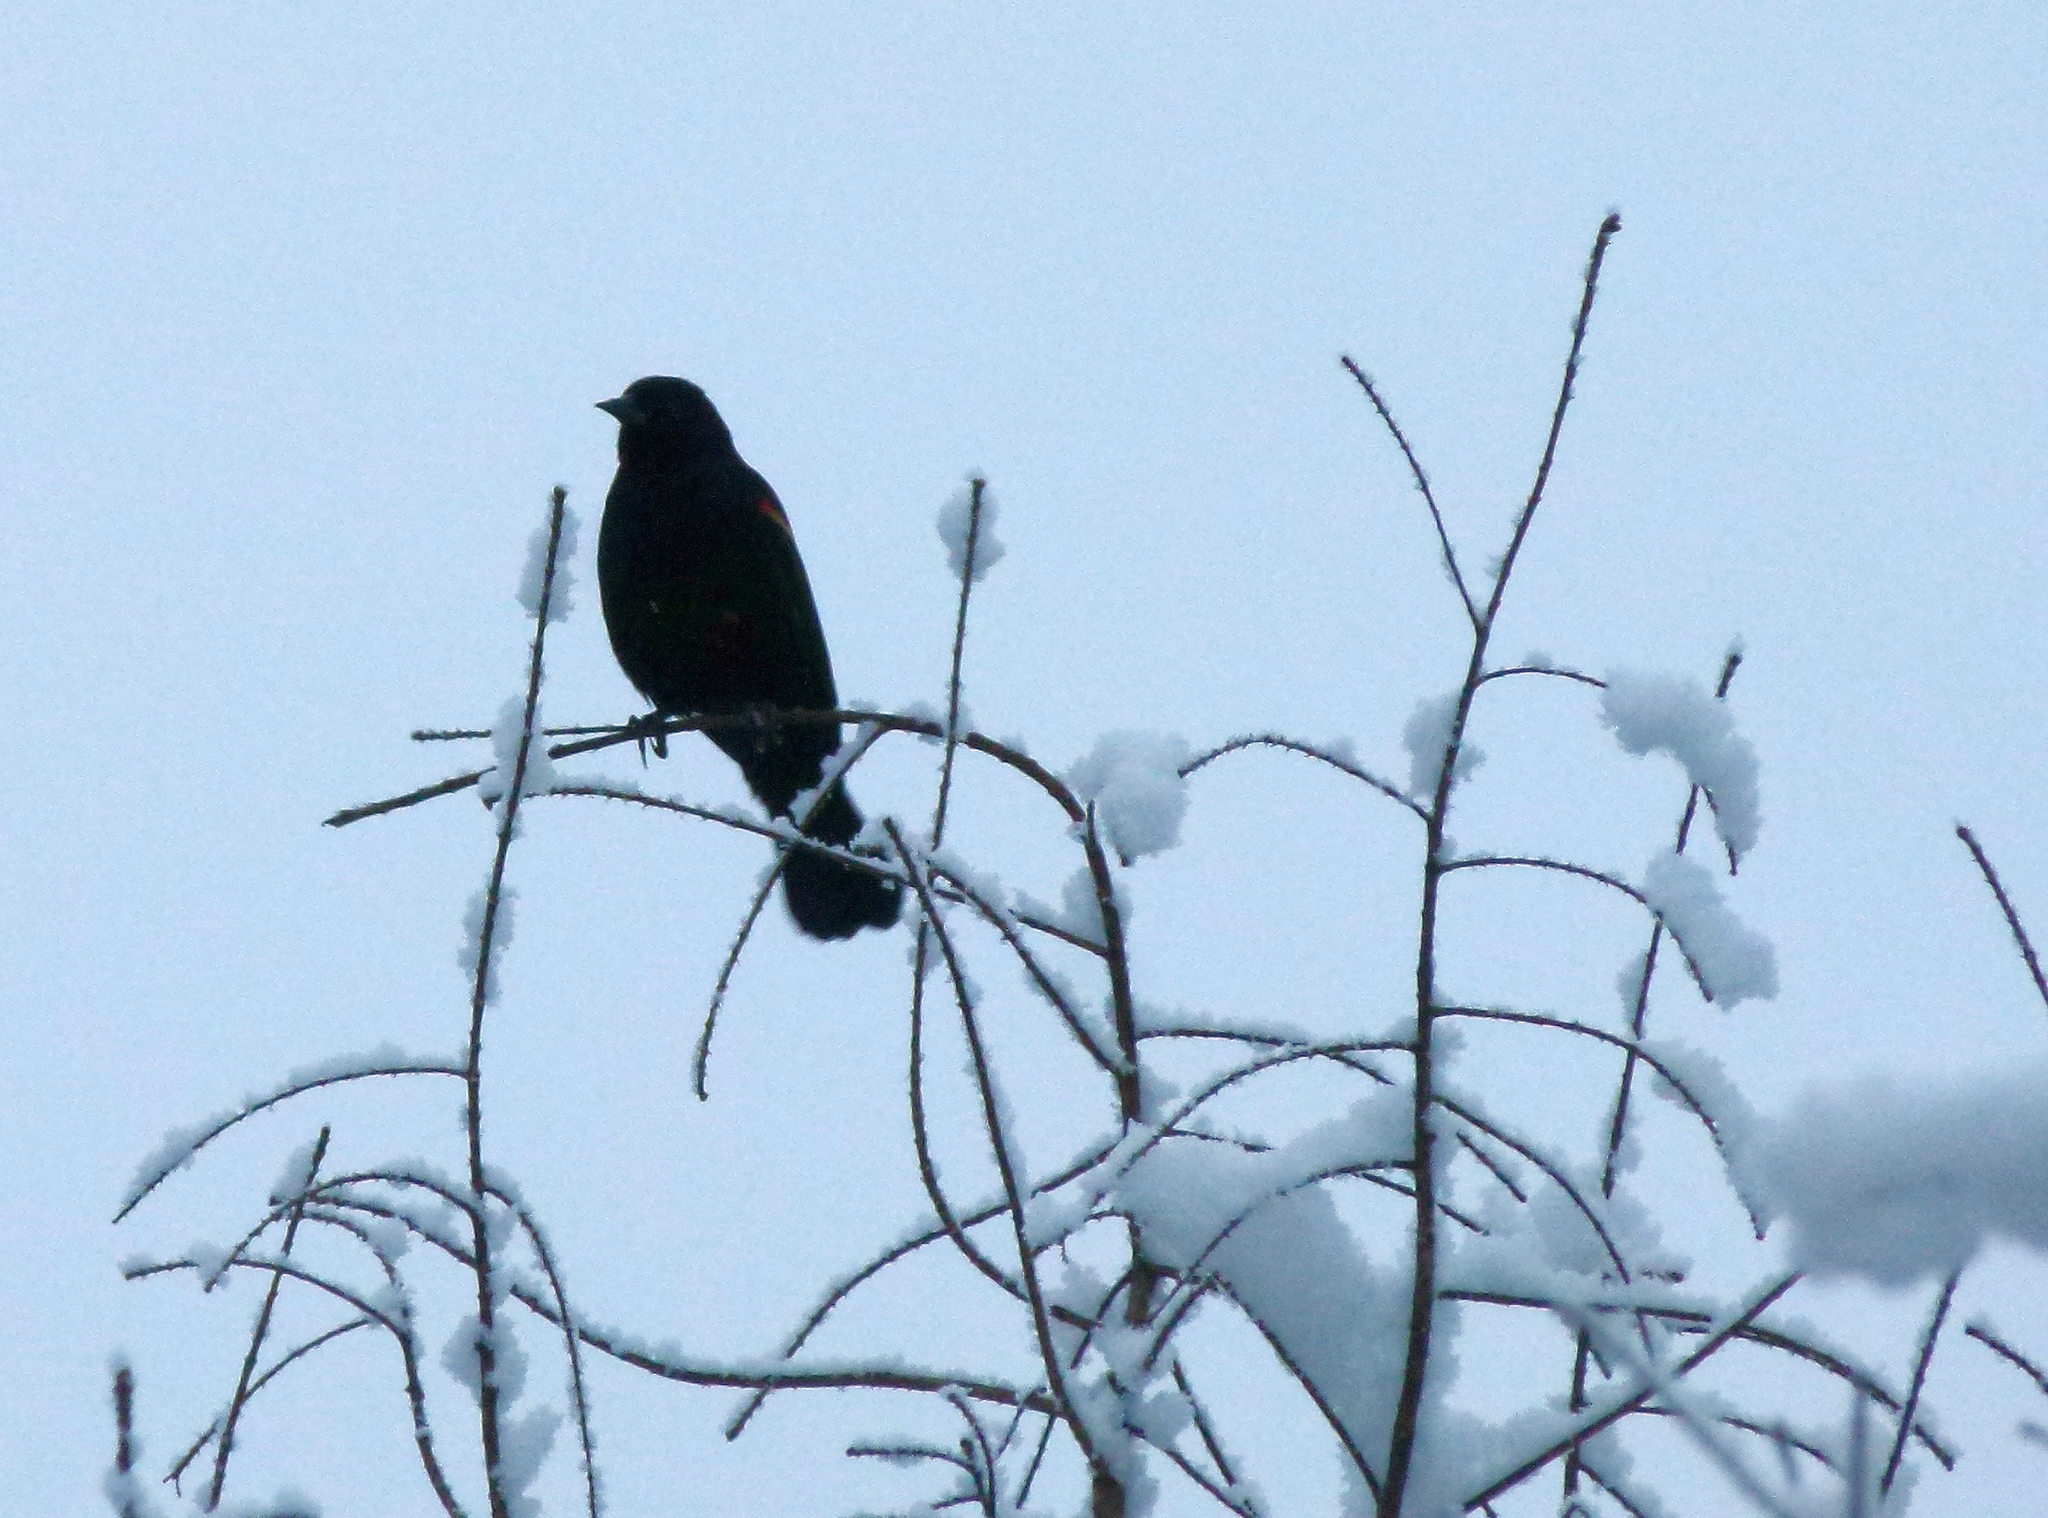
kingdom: Animalia
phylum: Chordata
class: Aves
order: Passeriformes
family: Icteridae
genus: Agelaius
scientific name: Agelaius phoeniceus
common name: Red-winged blackbird
